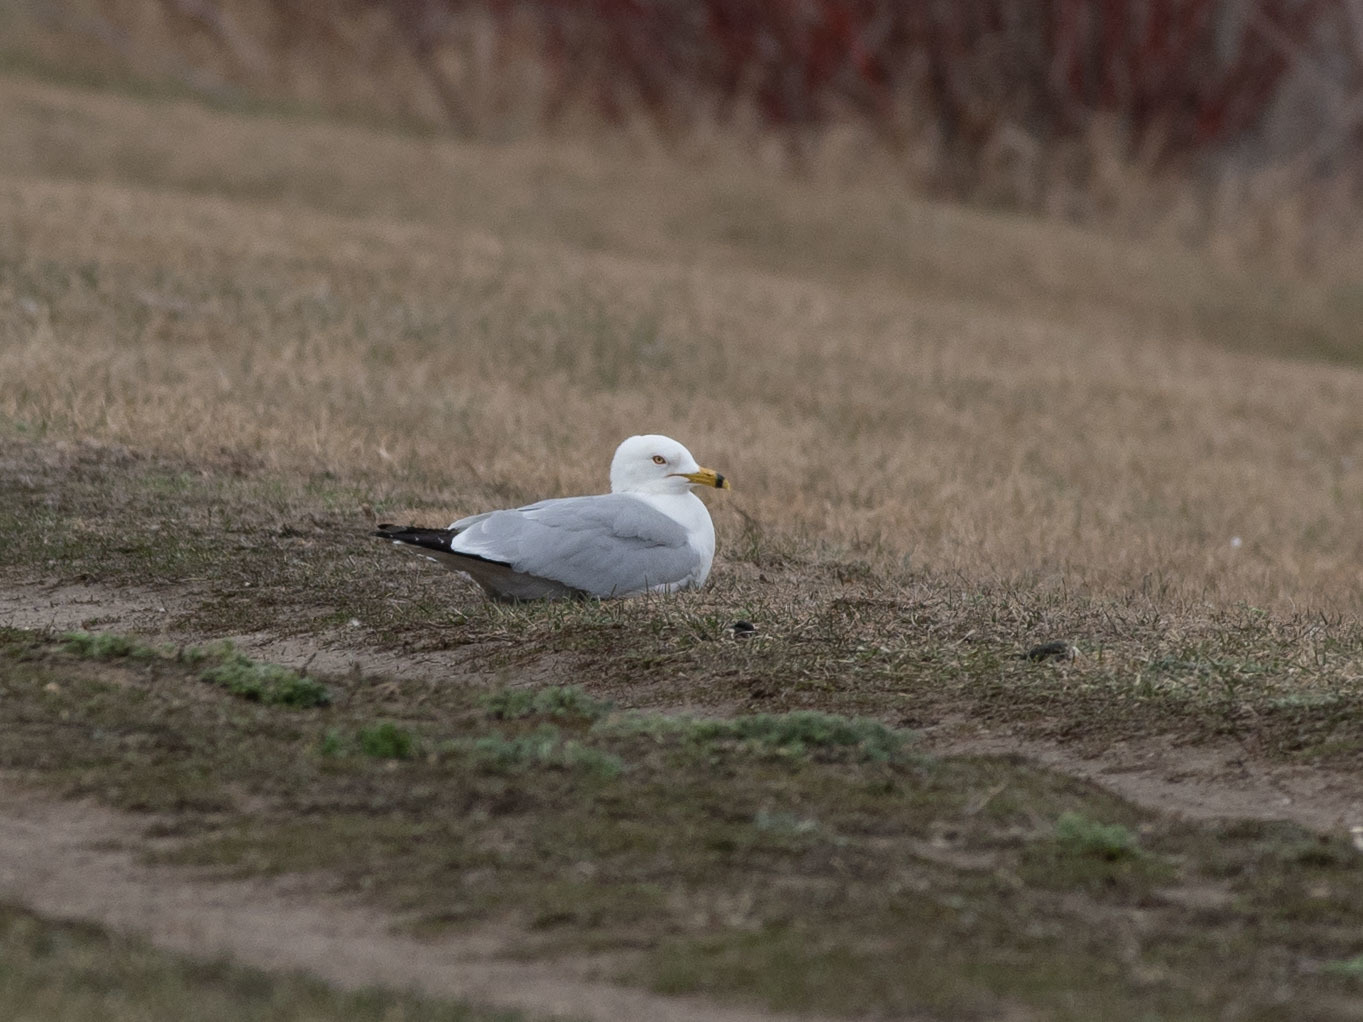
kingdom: Animalia
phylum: Chordata
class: Aves
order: Charadriiformes
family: Laridae
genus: Larus
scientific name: Larus delawarensis
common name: Ring-billed gull
